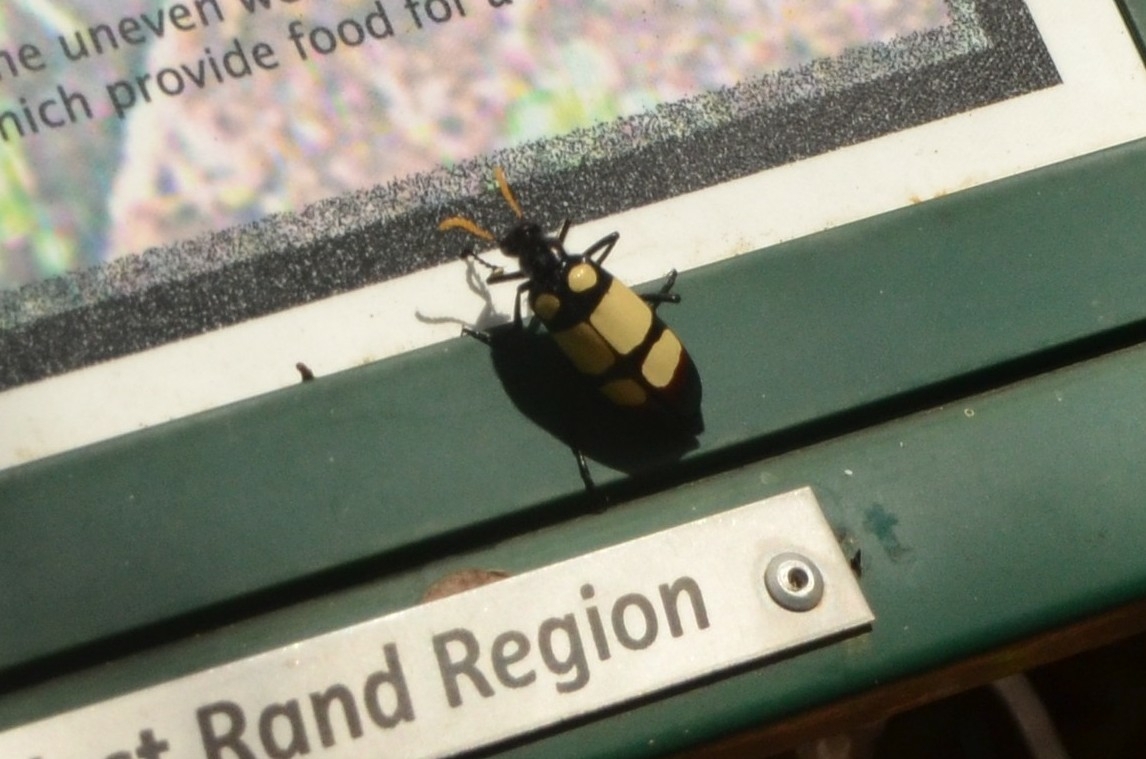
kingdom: Animalia
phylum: Arthropoda
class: Insecta
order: Coleoptera
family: Meloidae
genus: Hycleus
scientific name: Hycleus
